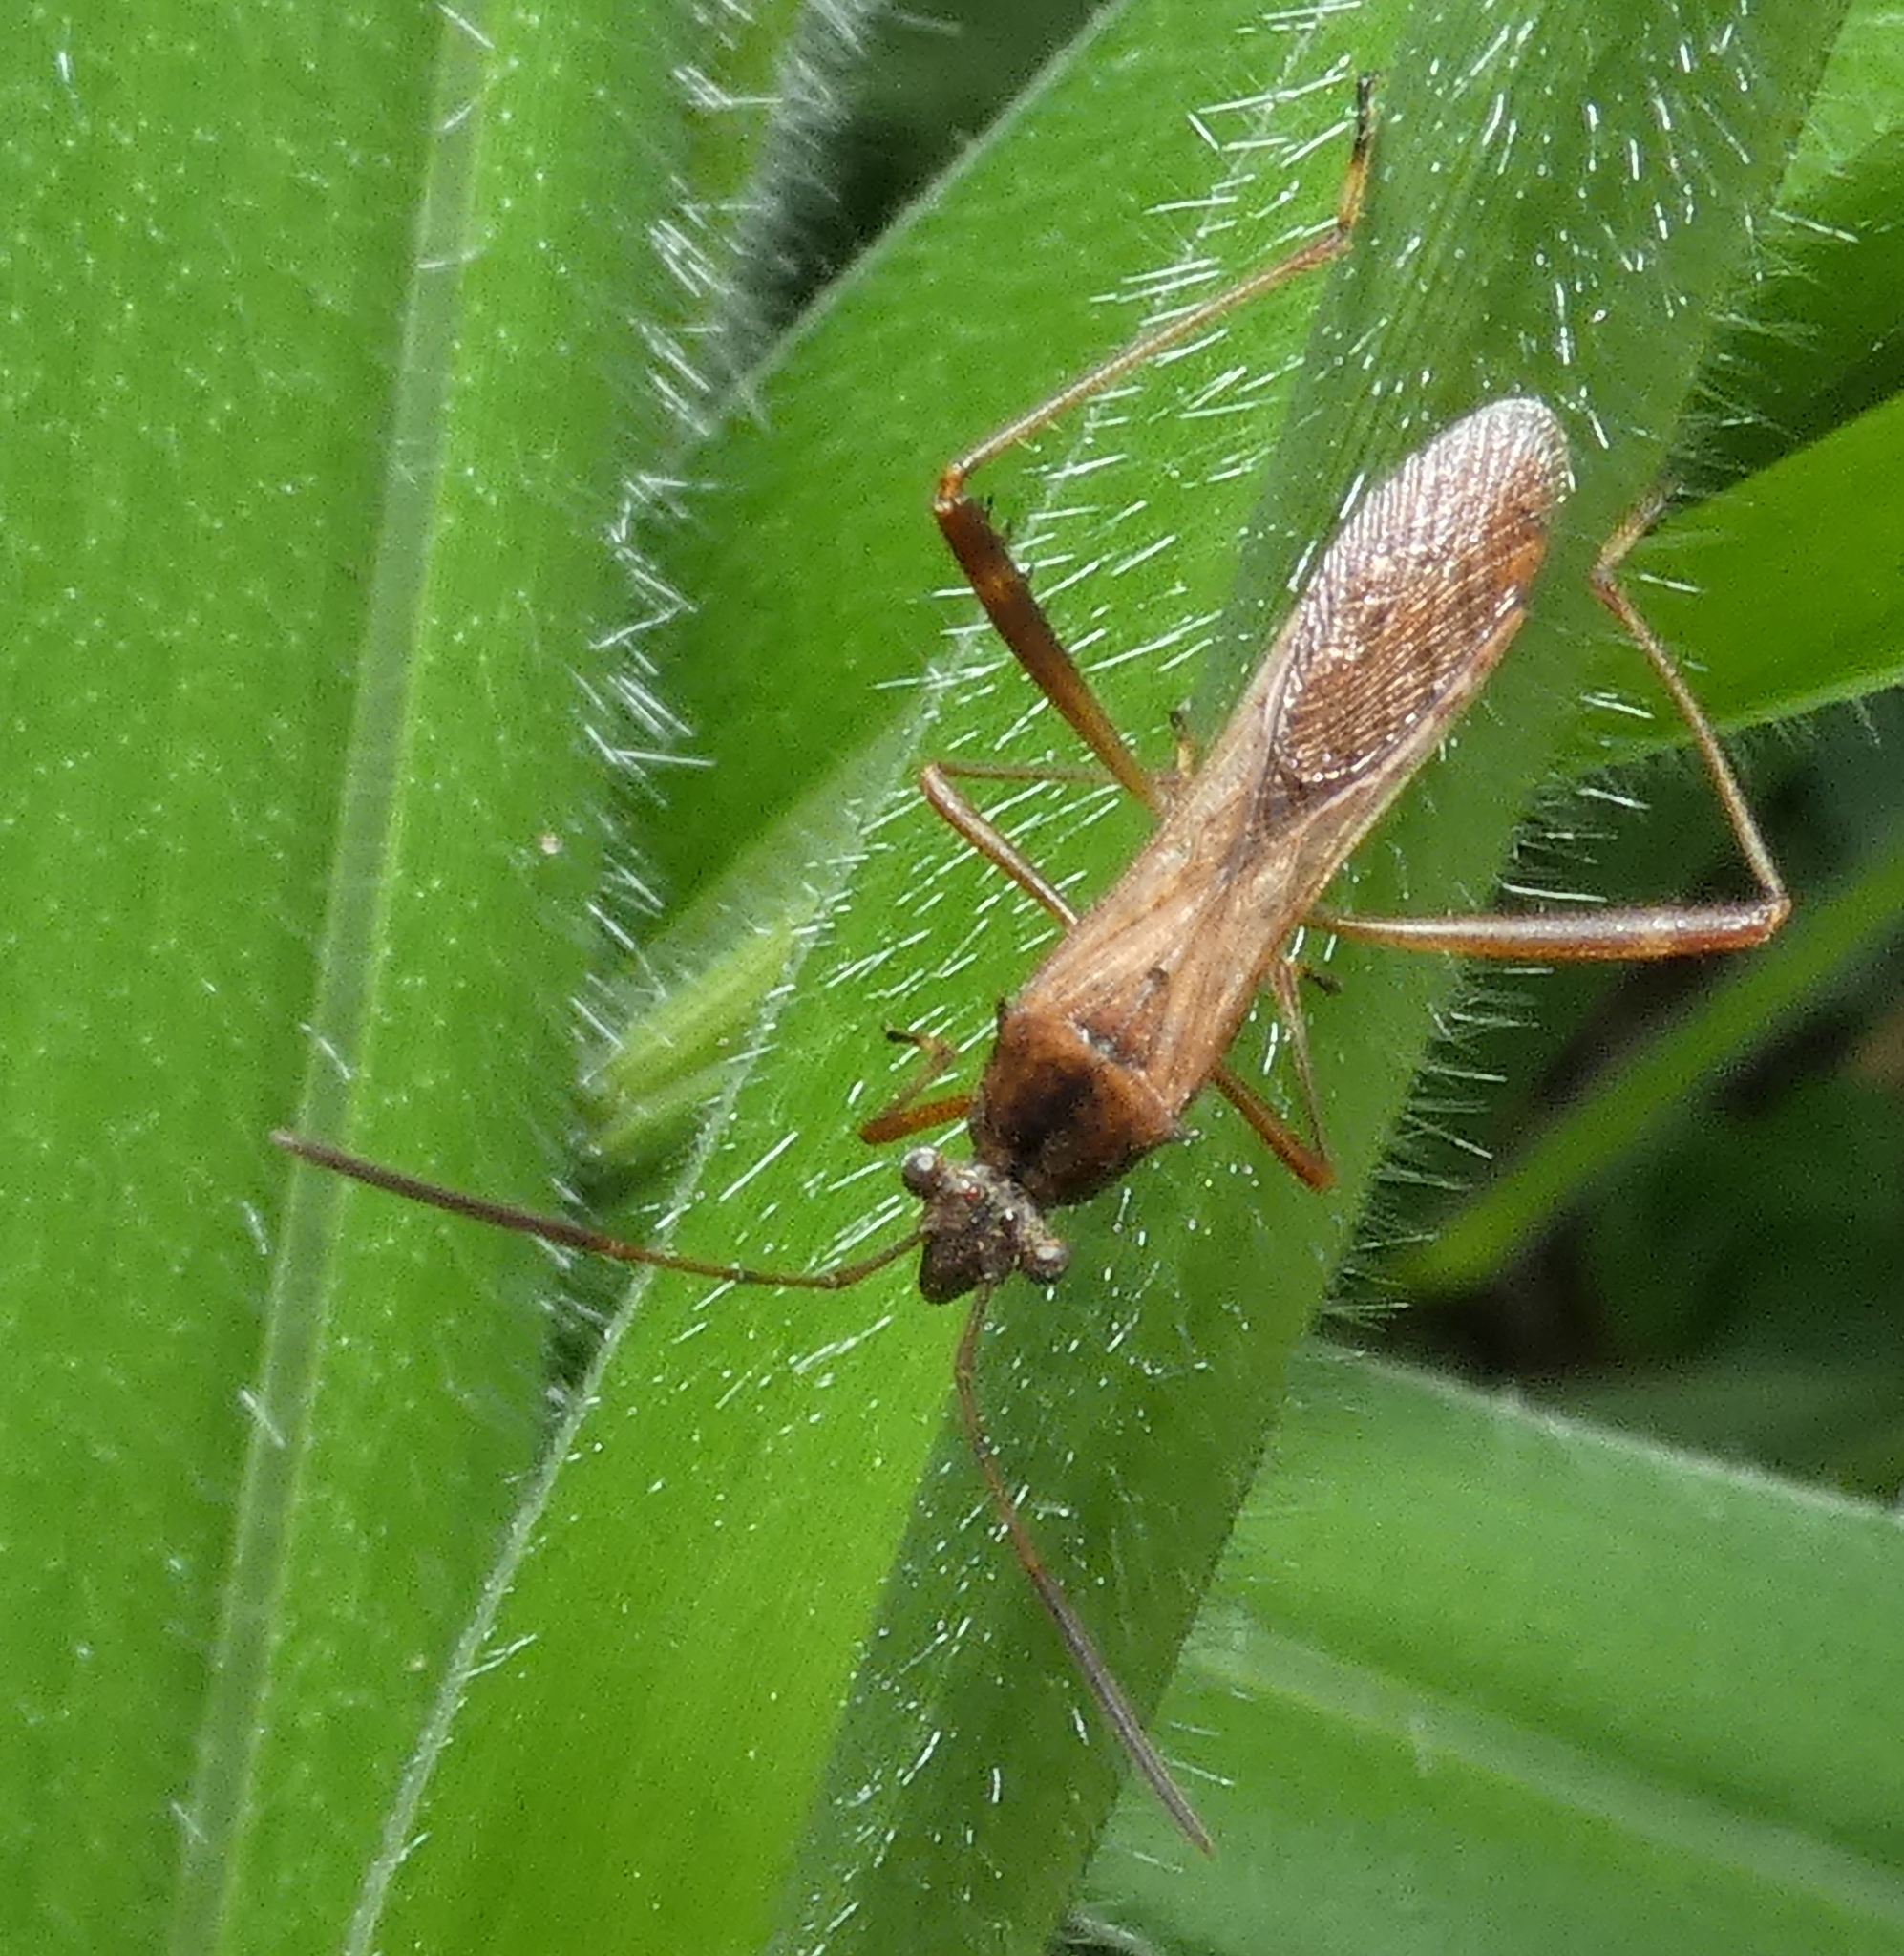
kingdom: Animalia
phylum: Arthropoda
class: Insecta
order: Hemiptera
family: Alydidae
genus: Neomegalotomus
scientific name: Neomegalotomus parvus
